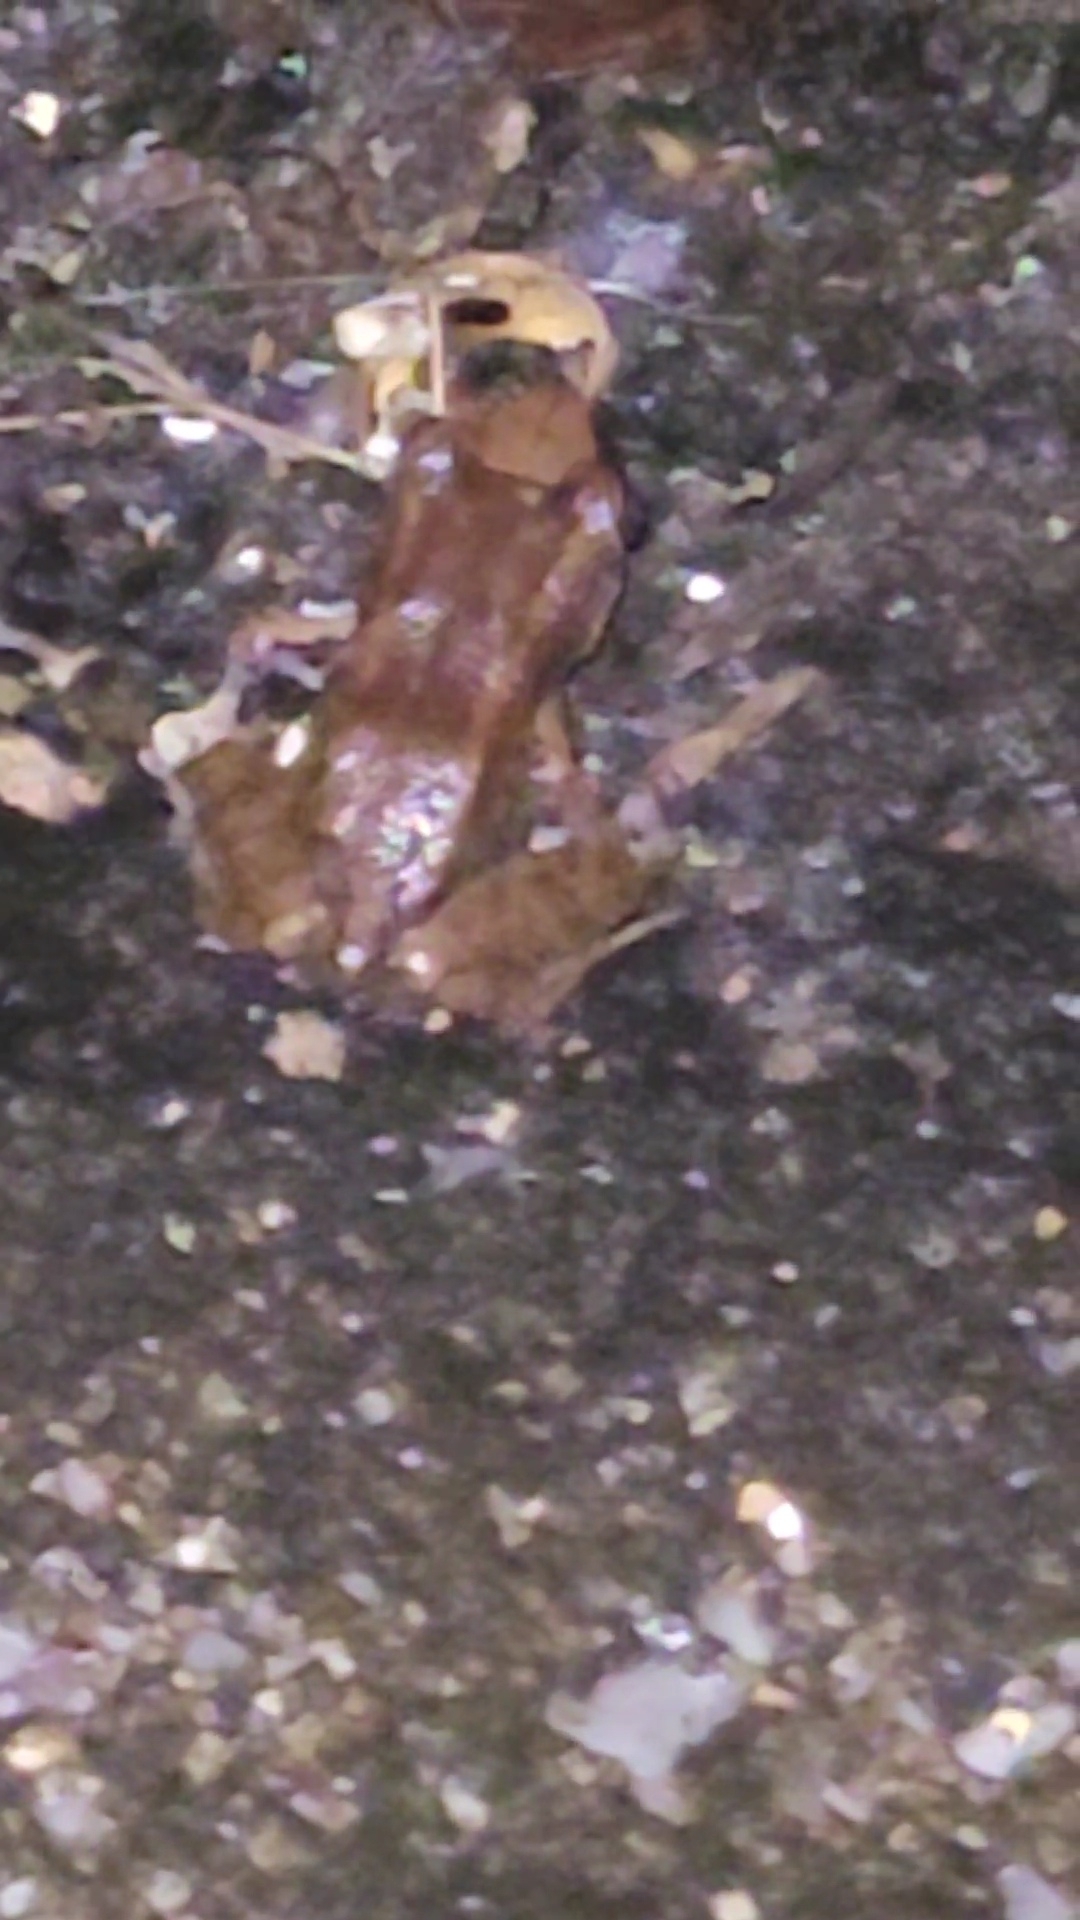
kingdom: Animalia
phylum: Chordata
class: Amphibia
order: Anura
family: Eleutherodactylidae
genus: Eleutherodactylus
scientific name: Eleutherodactylus planirostris
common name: Greenhouse frog
